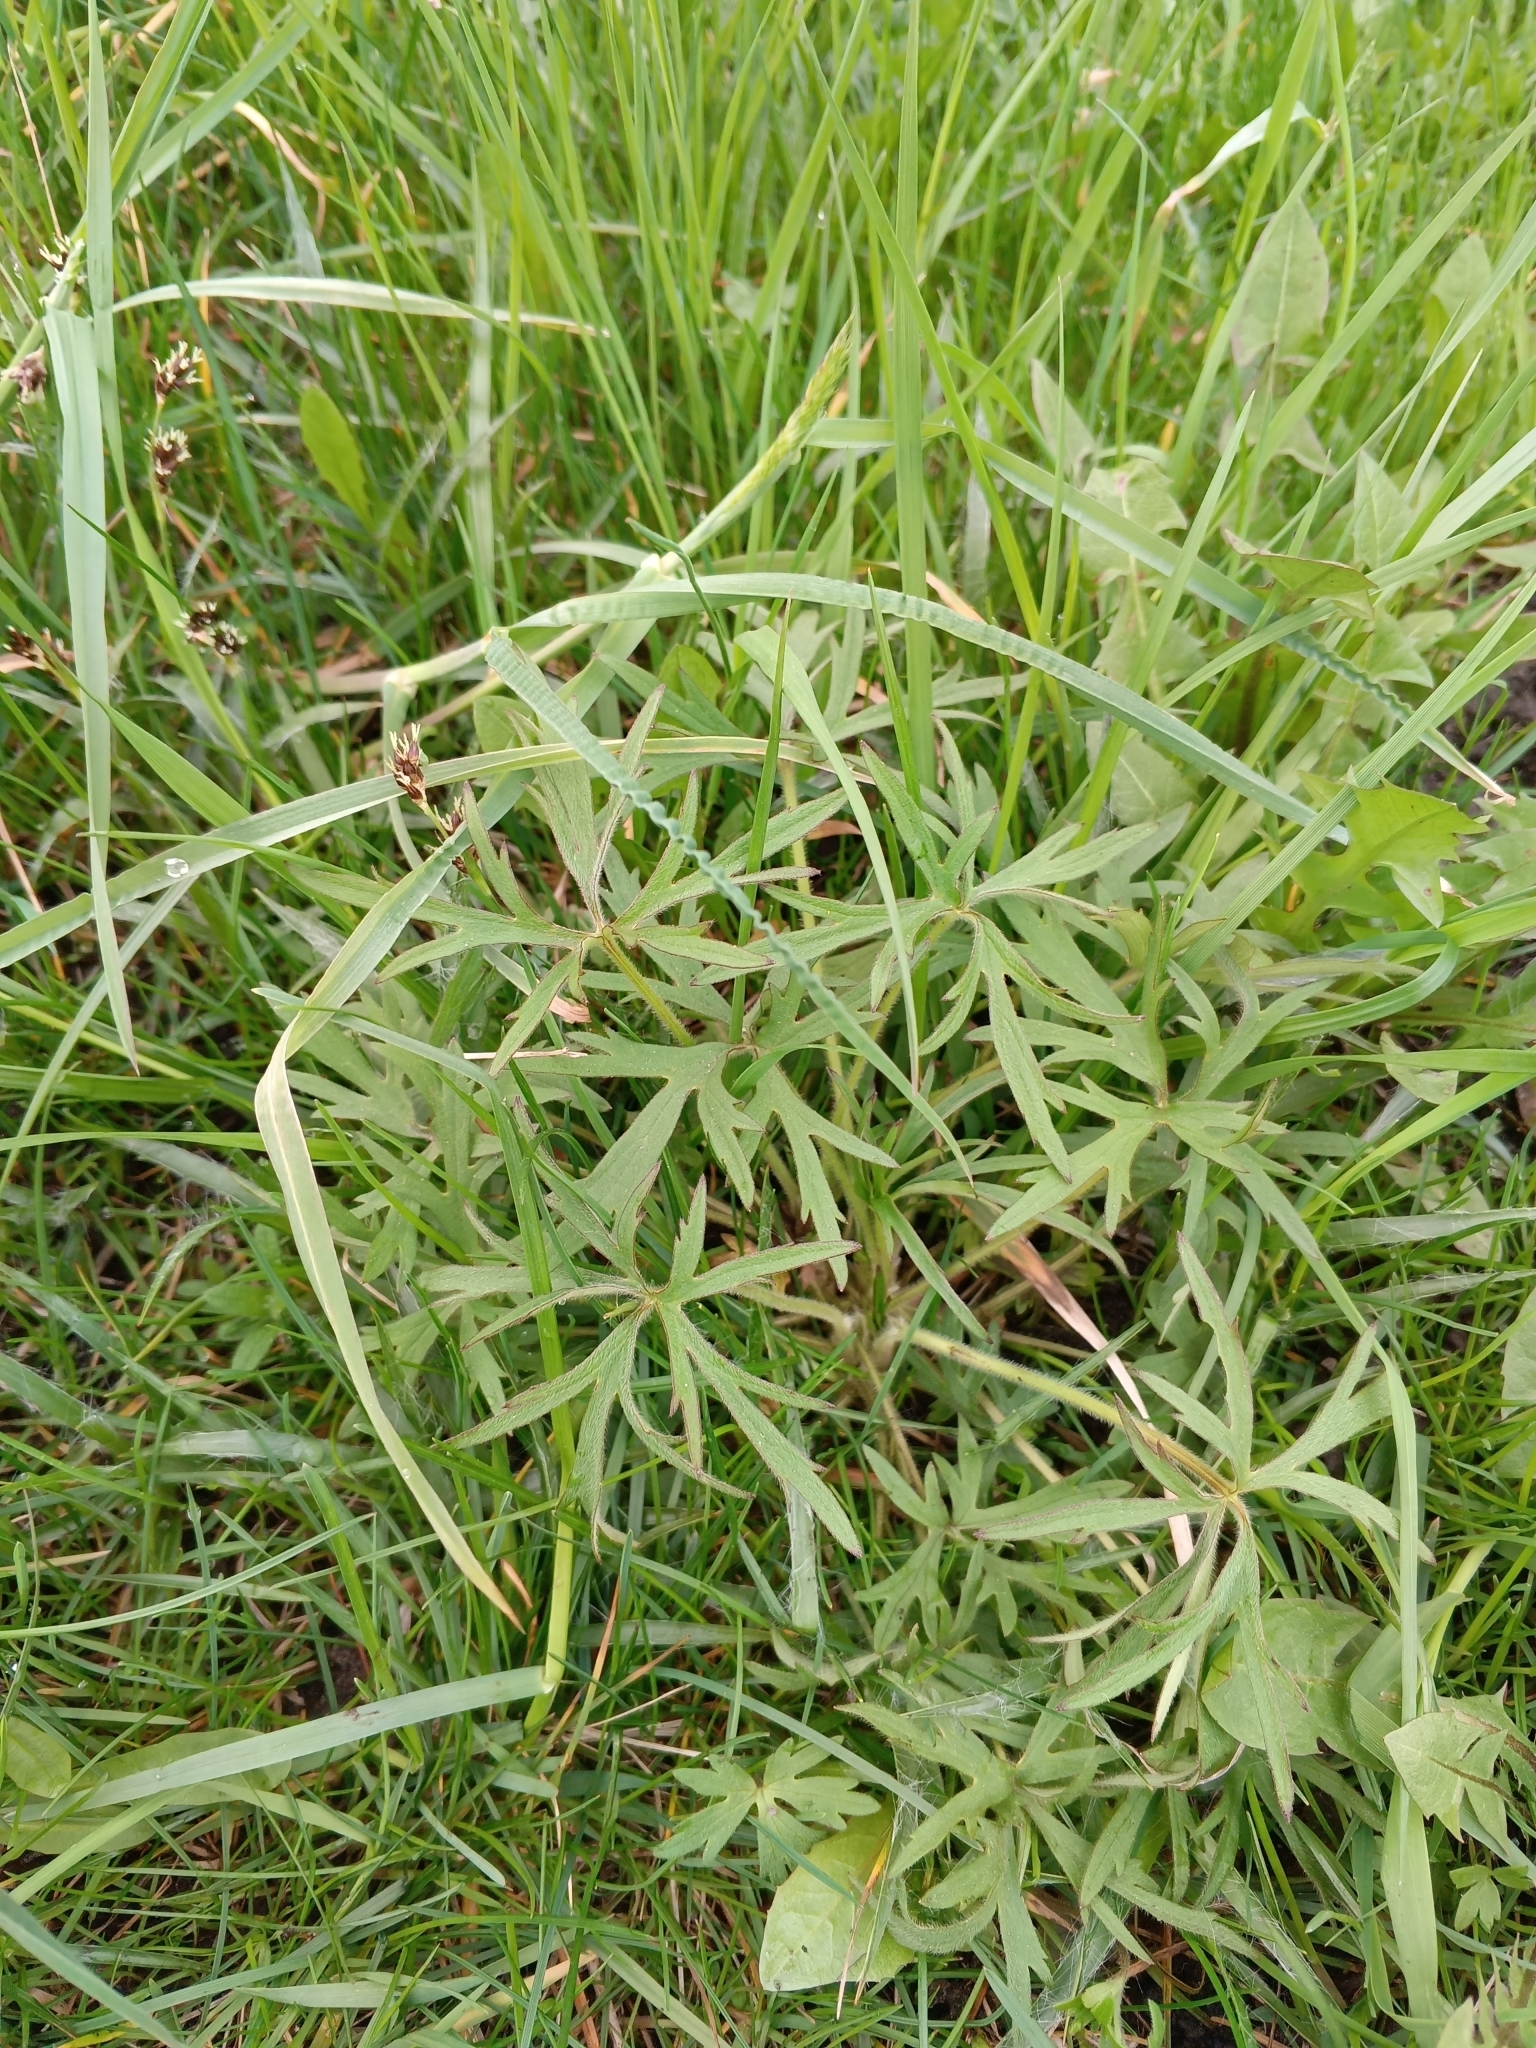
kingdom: Plantae
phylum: Tracheophyta
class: Magnoliopsida
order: Ranunculales
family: Ranunculaceae
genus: Ranunculus
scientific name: Ranunculus acris
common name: Meadow buttercup
